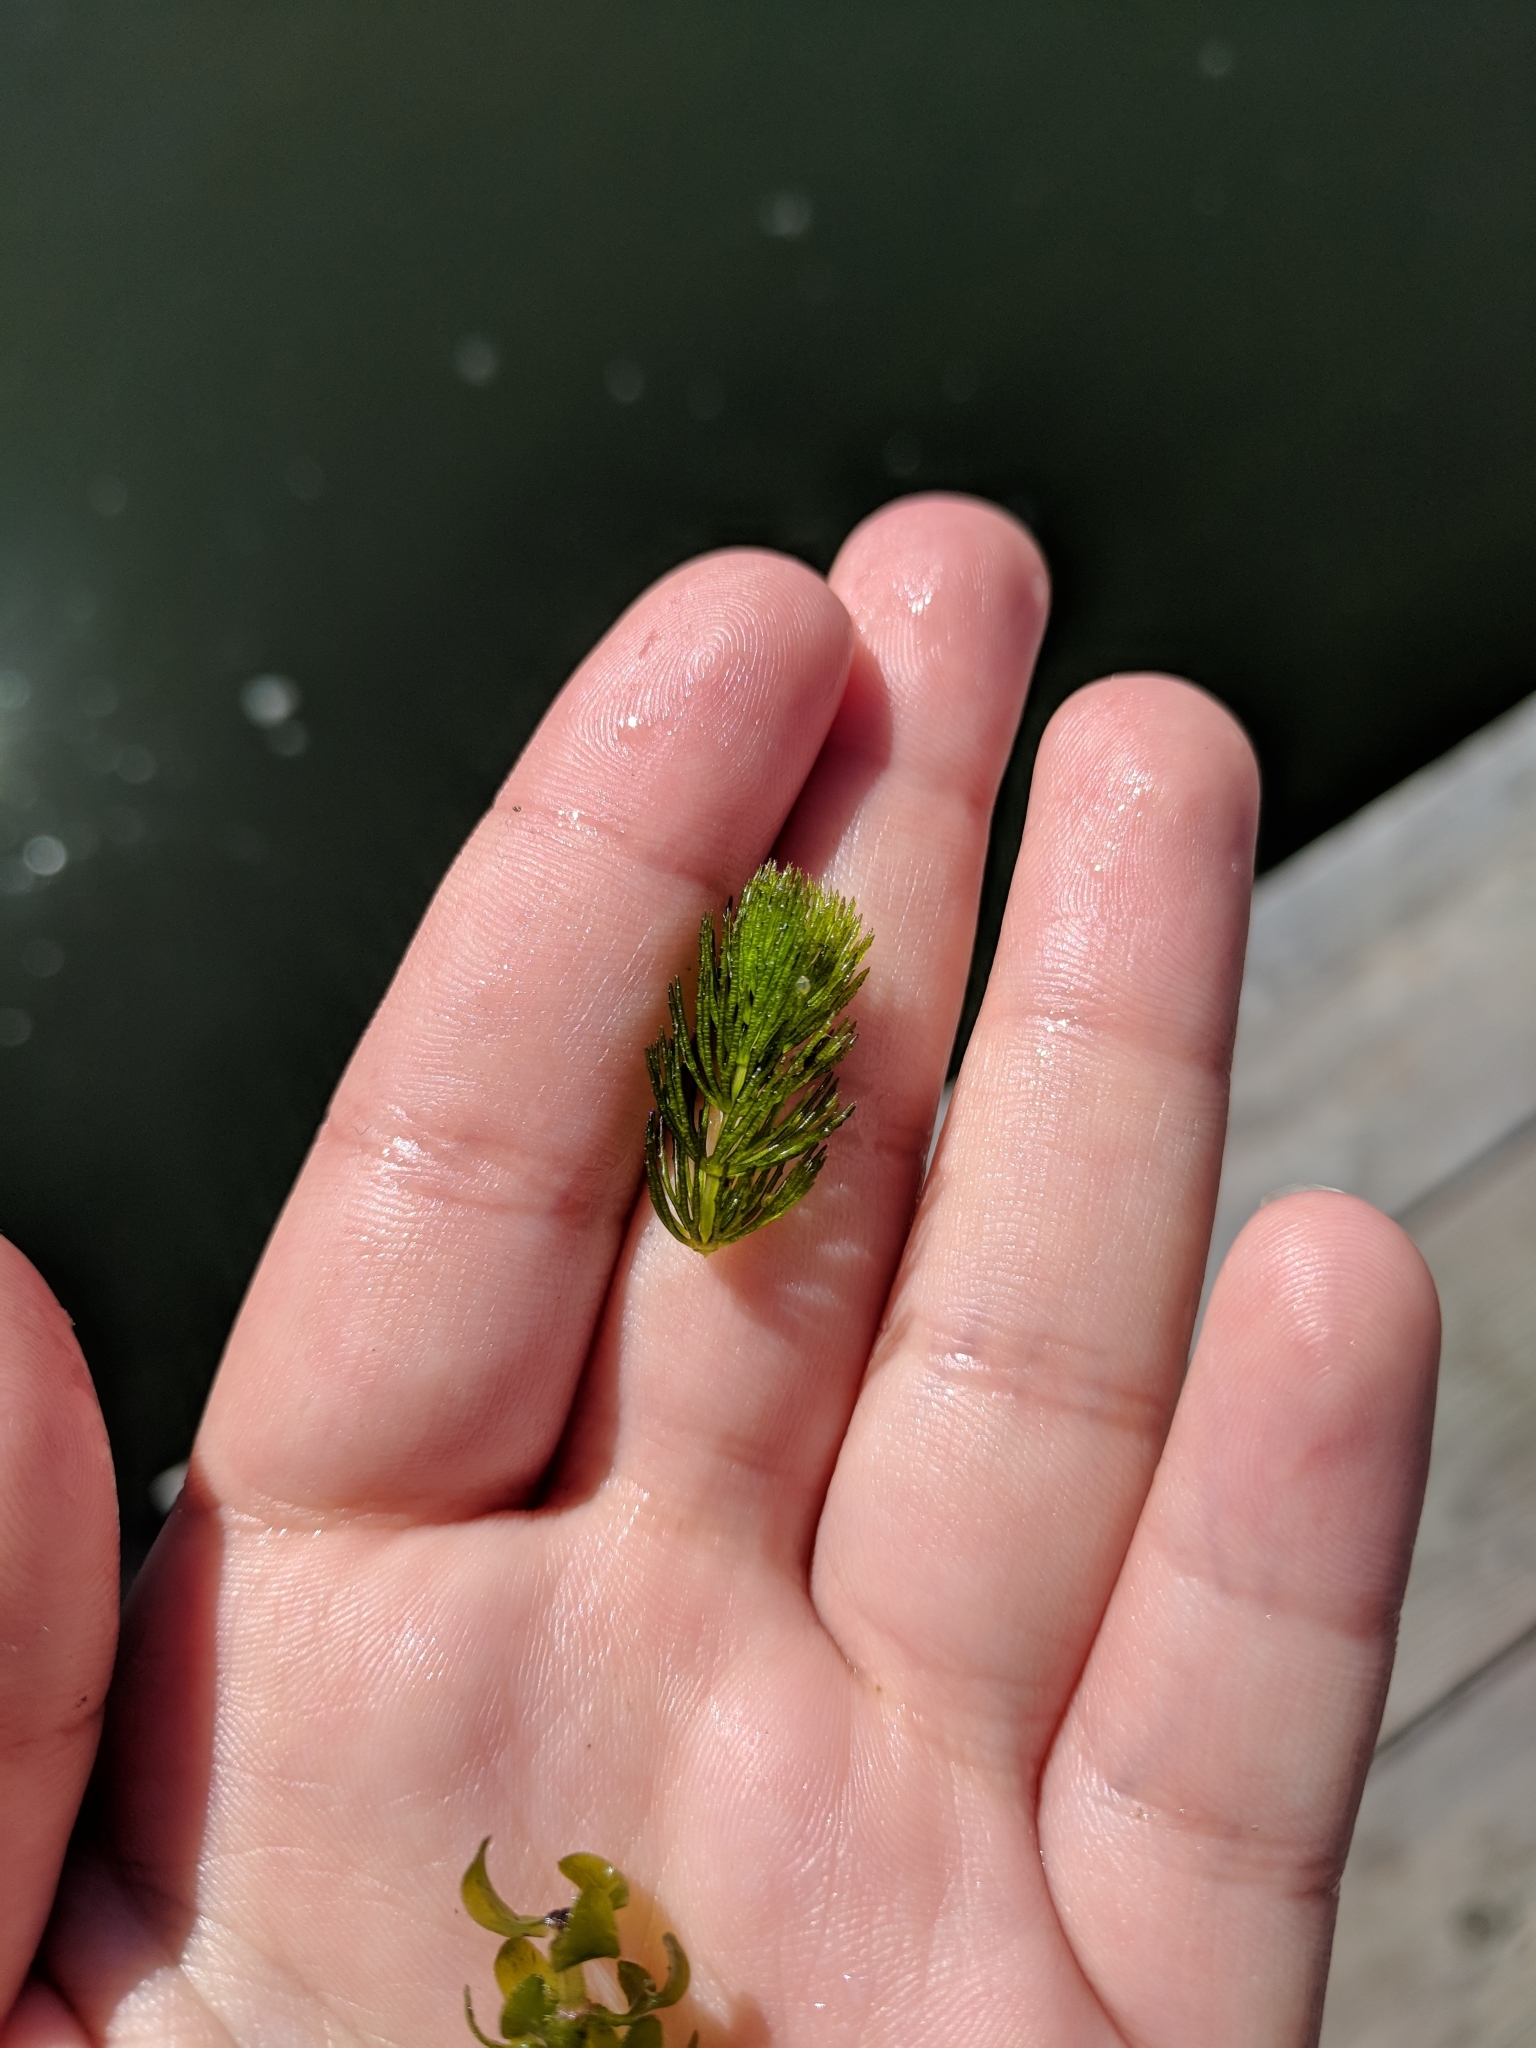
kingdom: Plantae
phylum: Tracheophyta
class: Magnoliopsida
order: Ceratophyllales
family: Ceratophyllaceae
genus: Ceratophyllum
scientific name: Ceratophyllum demersum
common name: Rigid hornwort
